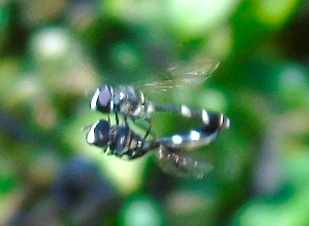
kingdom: Animalia
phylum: Arthropoda
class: Insecta
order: Diptera
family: Syrphidae
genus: Dioprosopa
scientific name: Dioprosopa clavatus
